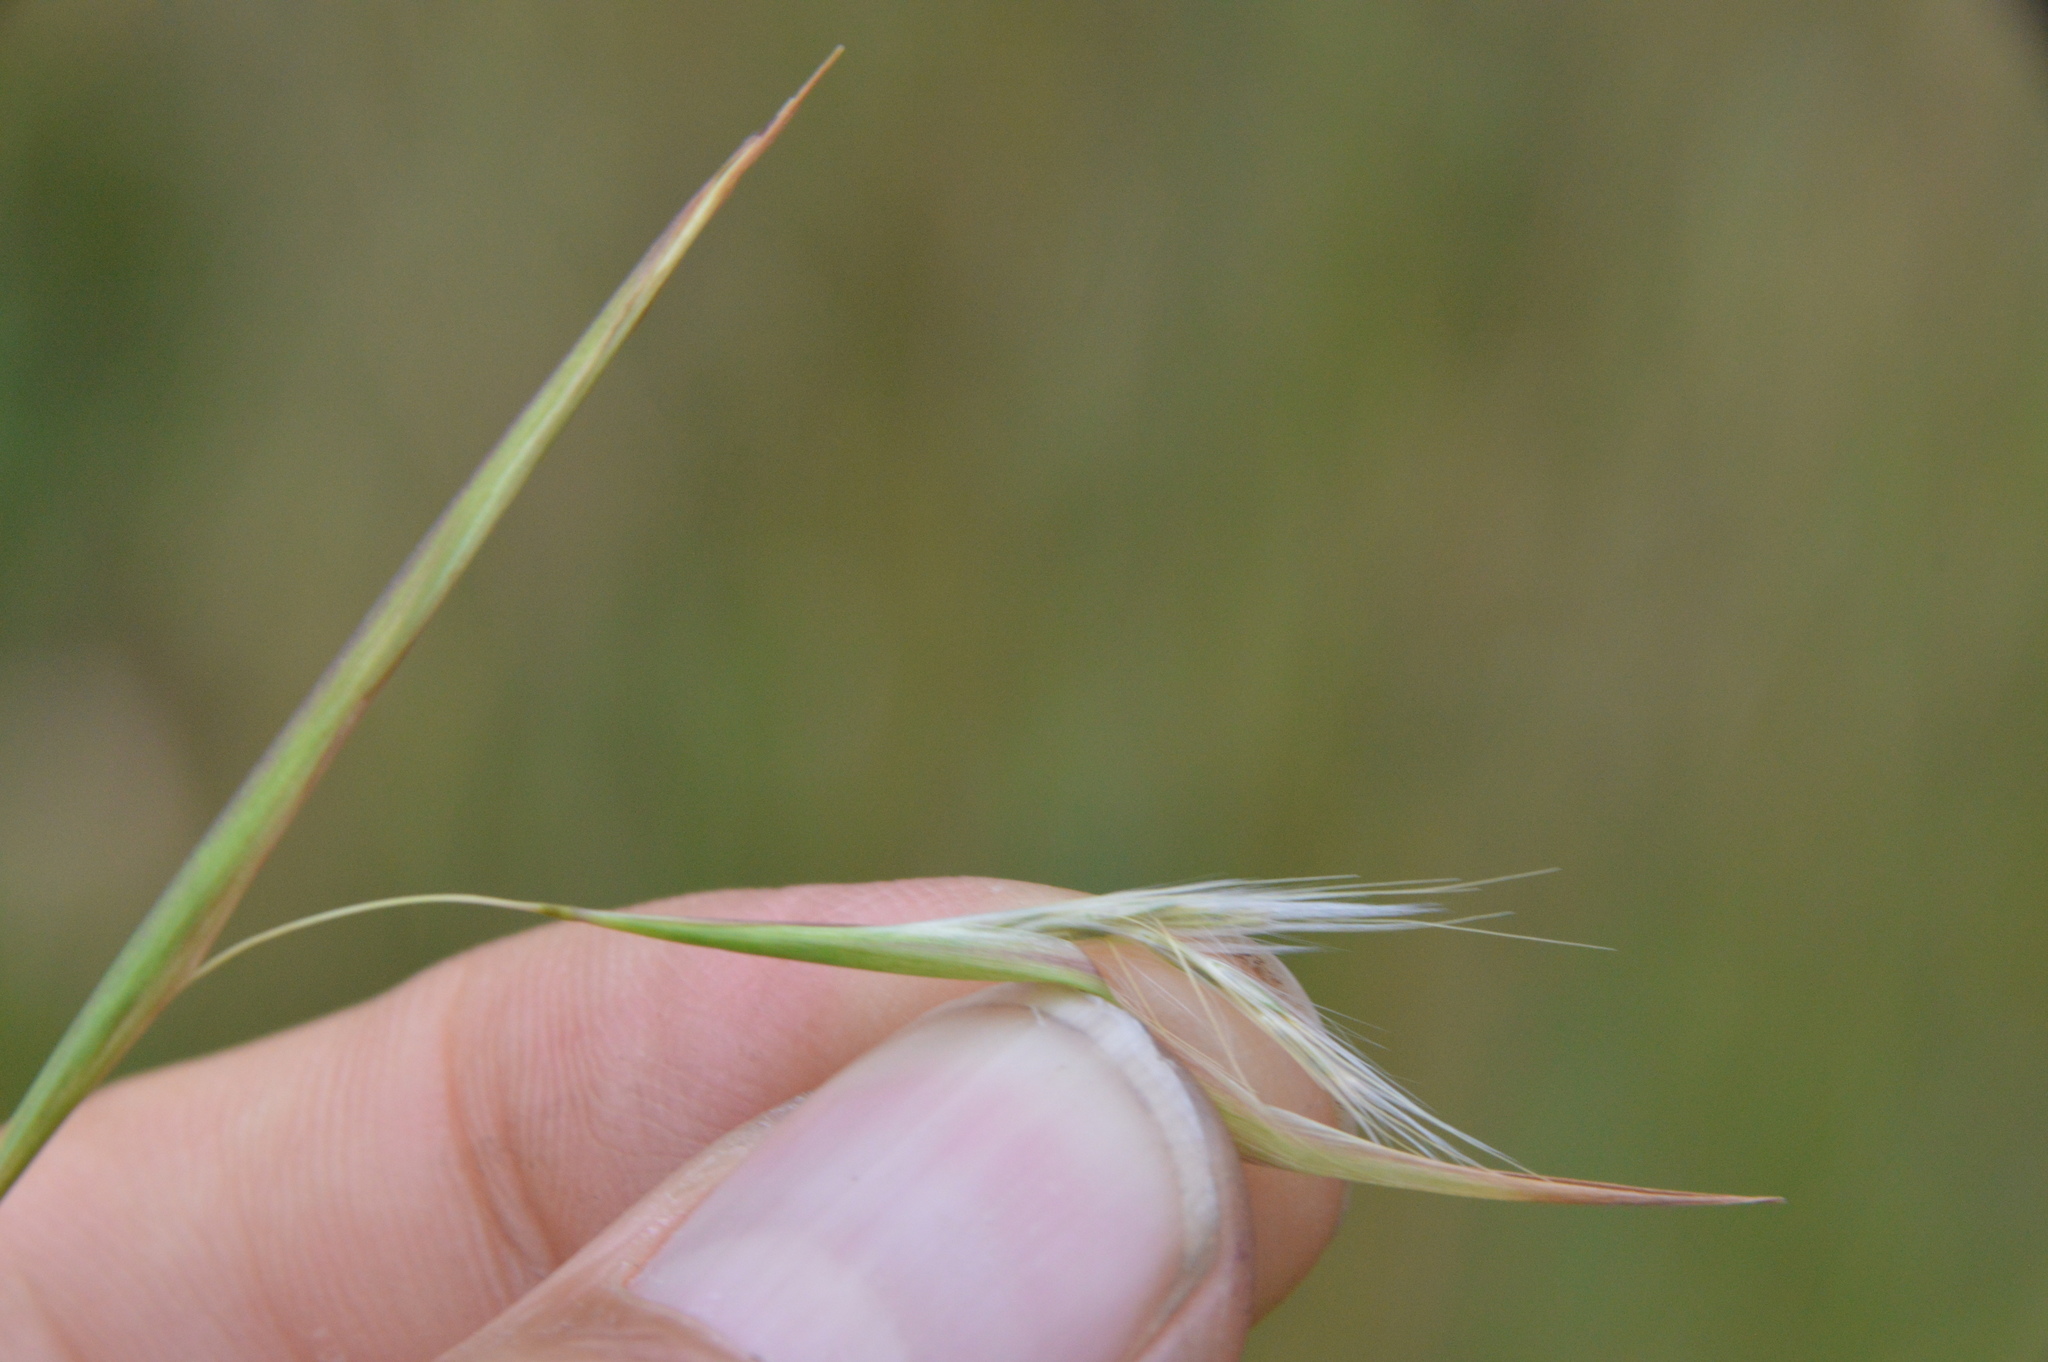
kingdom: Plantae
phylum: Tracheophyta
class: Liliopsida
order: Poales
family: Poaceae
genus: Andropogon
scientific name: Andropogon virginicus
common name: Broomsedge bluestem
